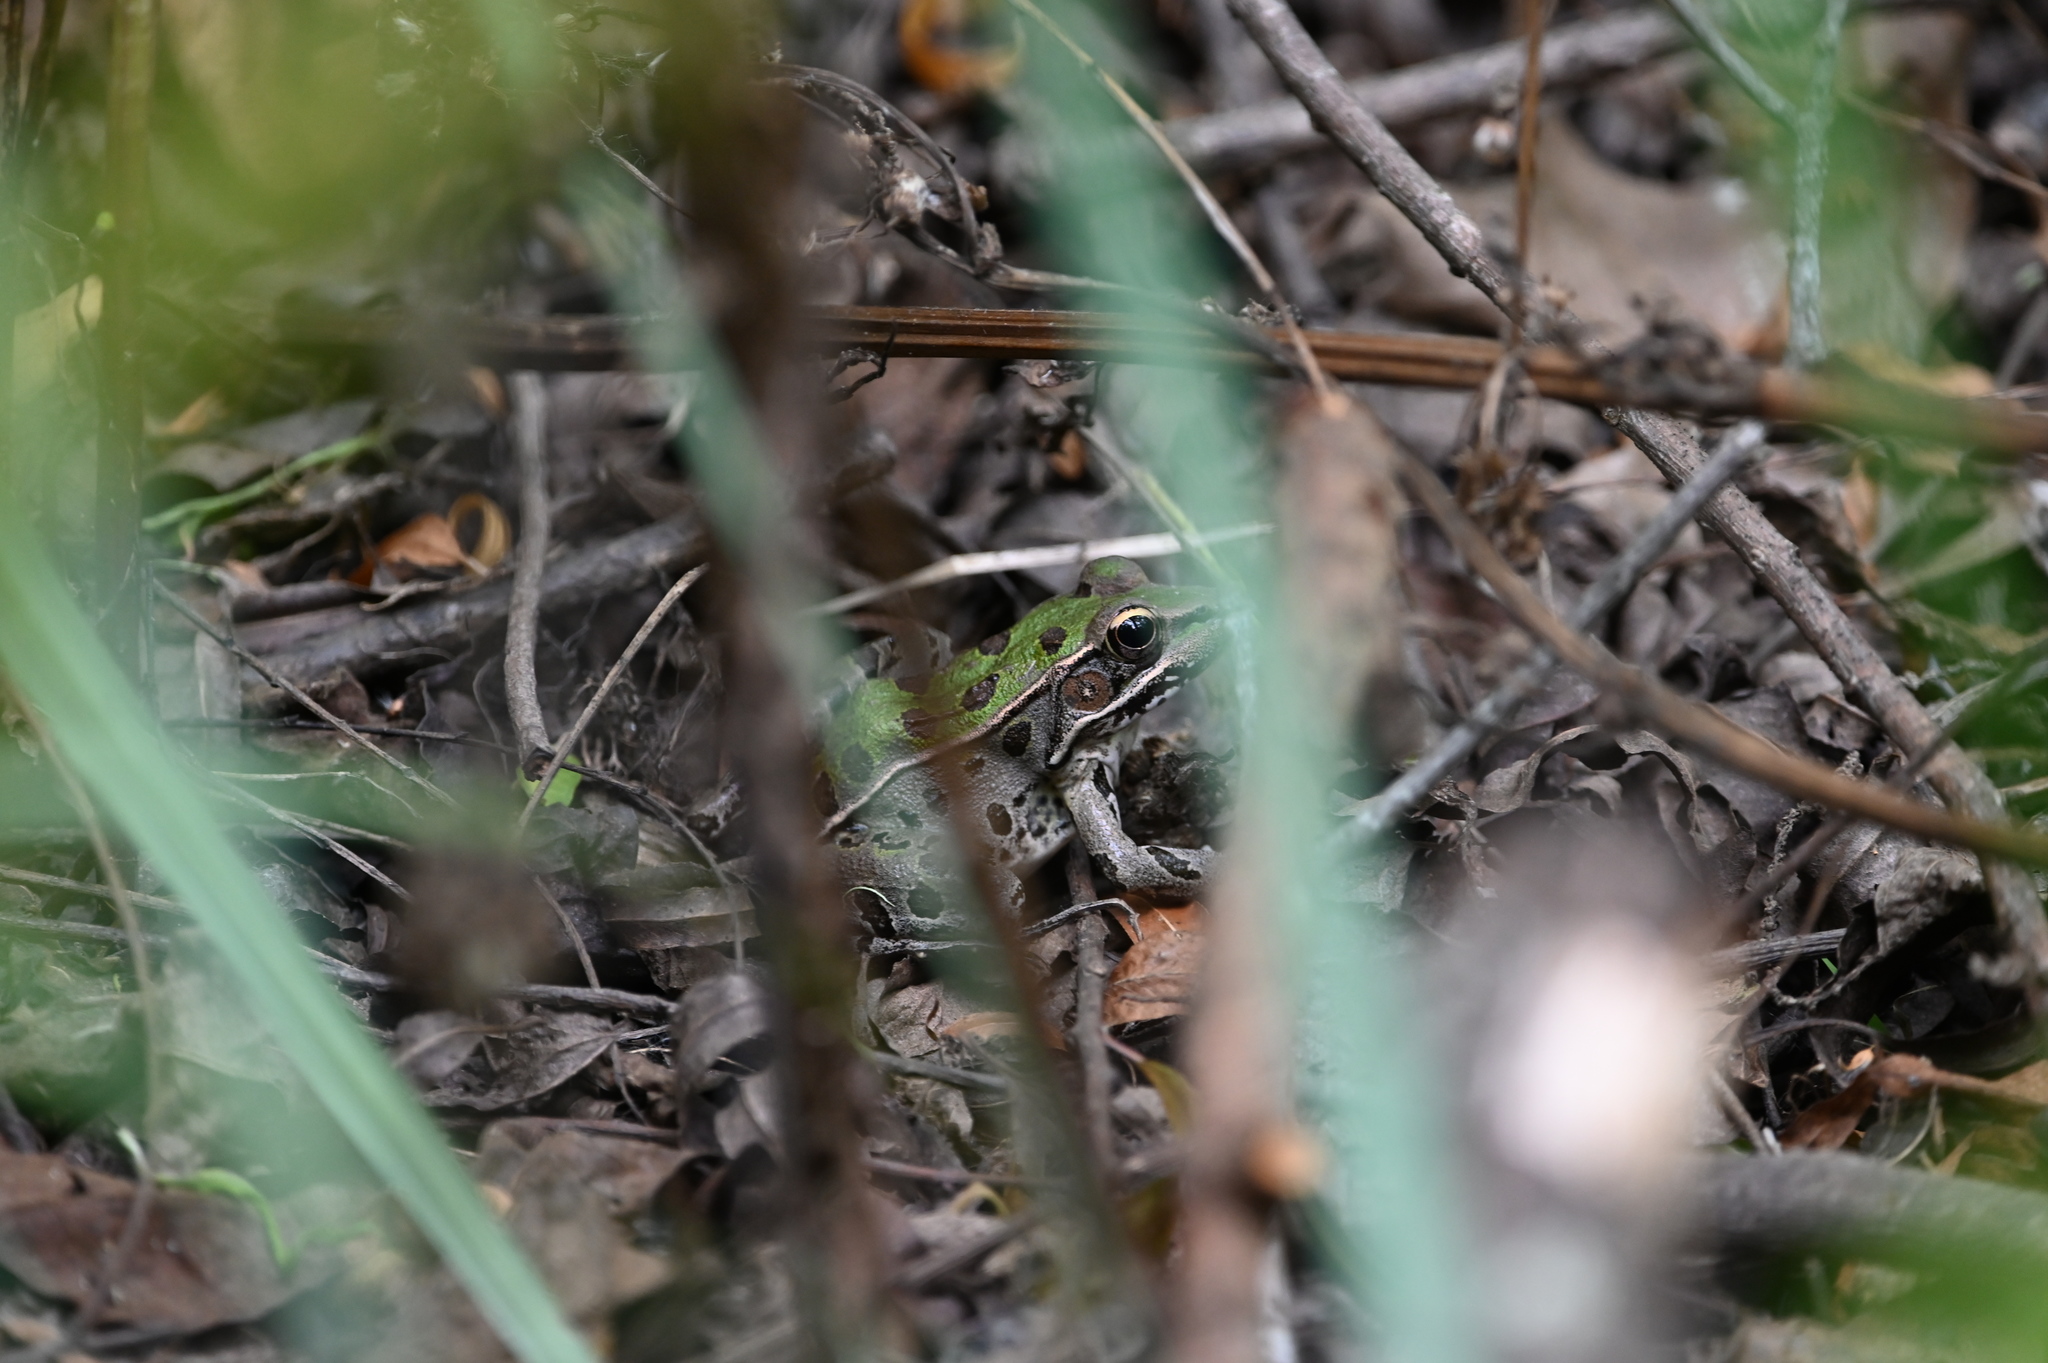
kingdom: Animalia
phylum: Chordata
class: Amphibia
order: Anura
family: Ranidae
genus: Lithobates
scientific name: Lithobates sphenocephalus
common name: Southern leopard frog
